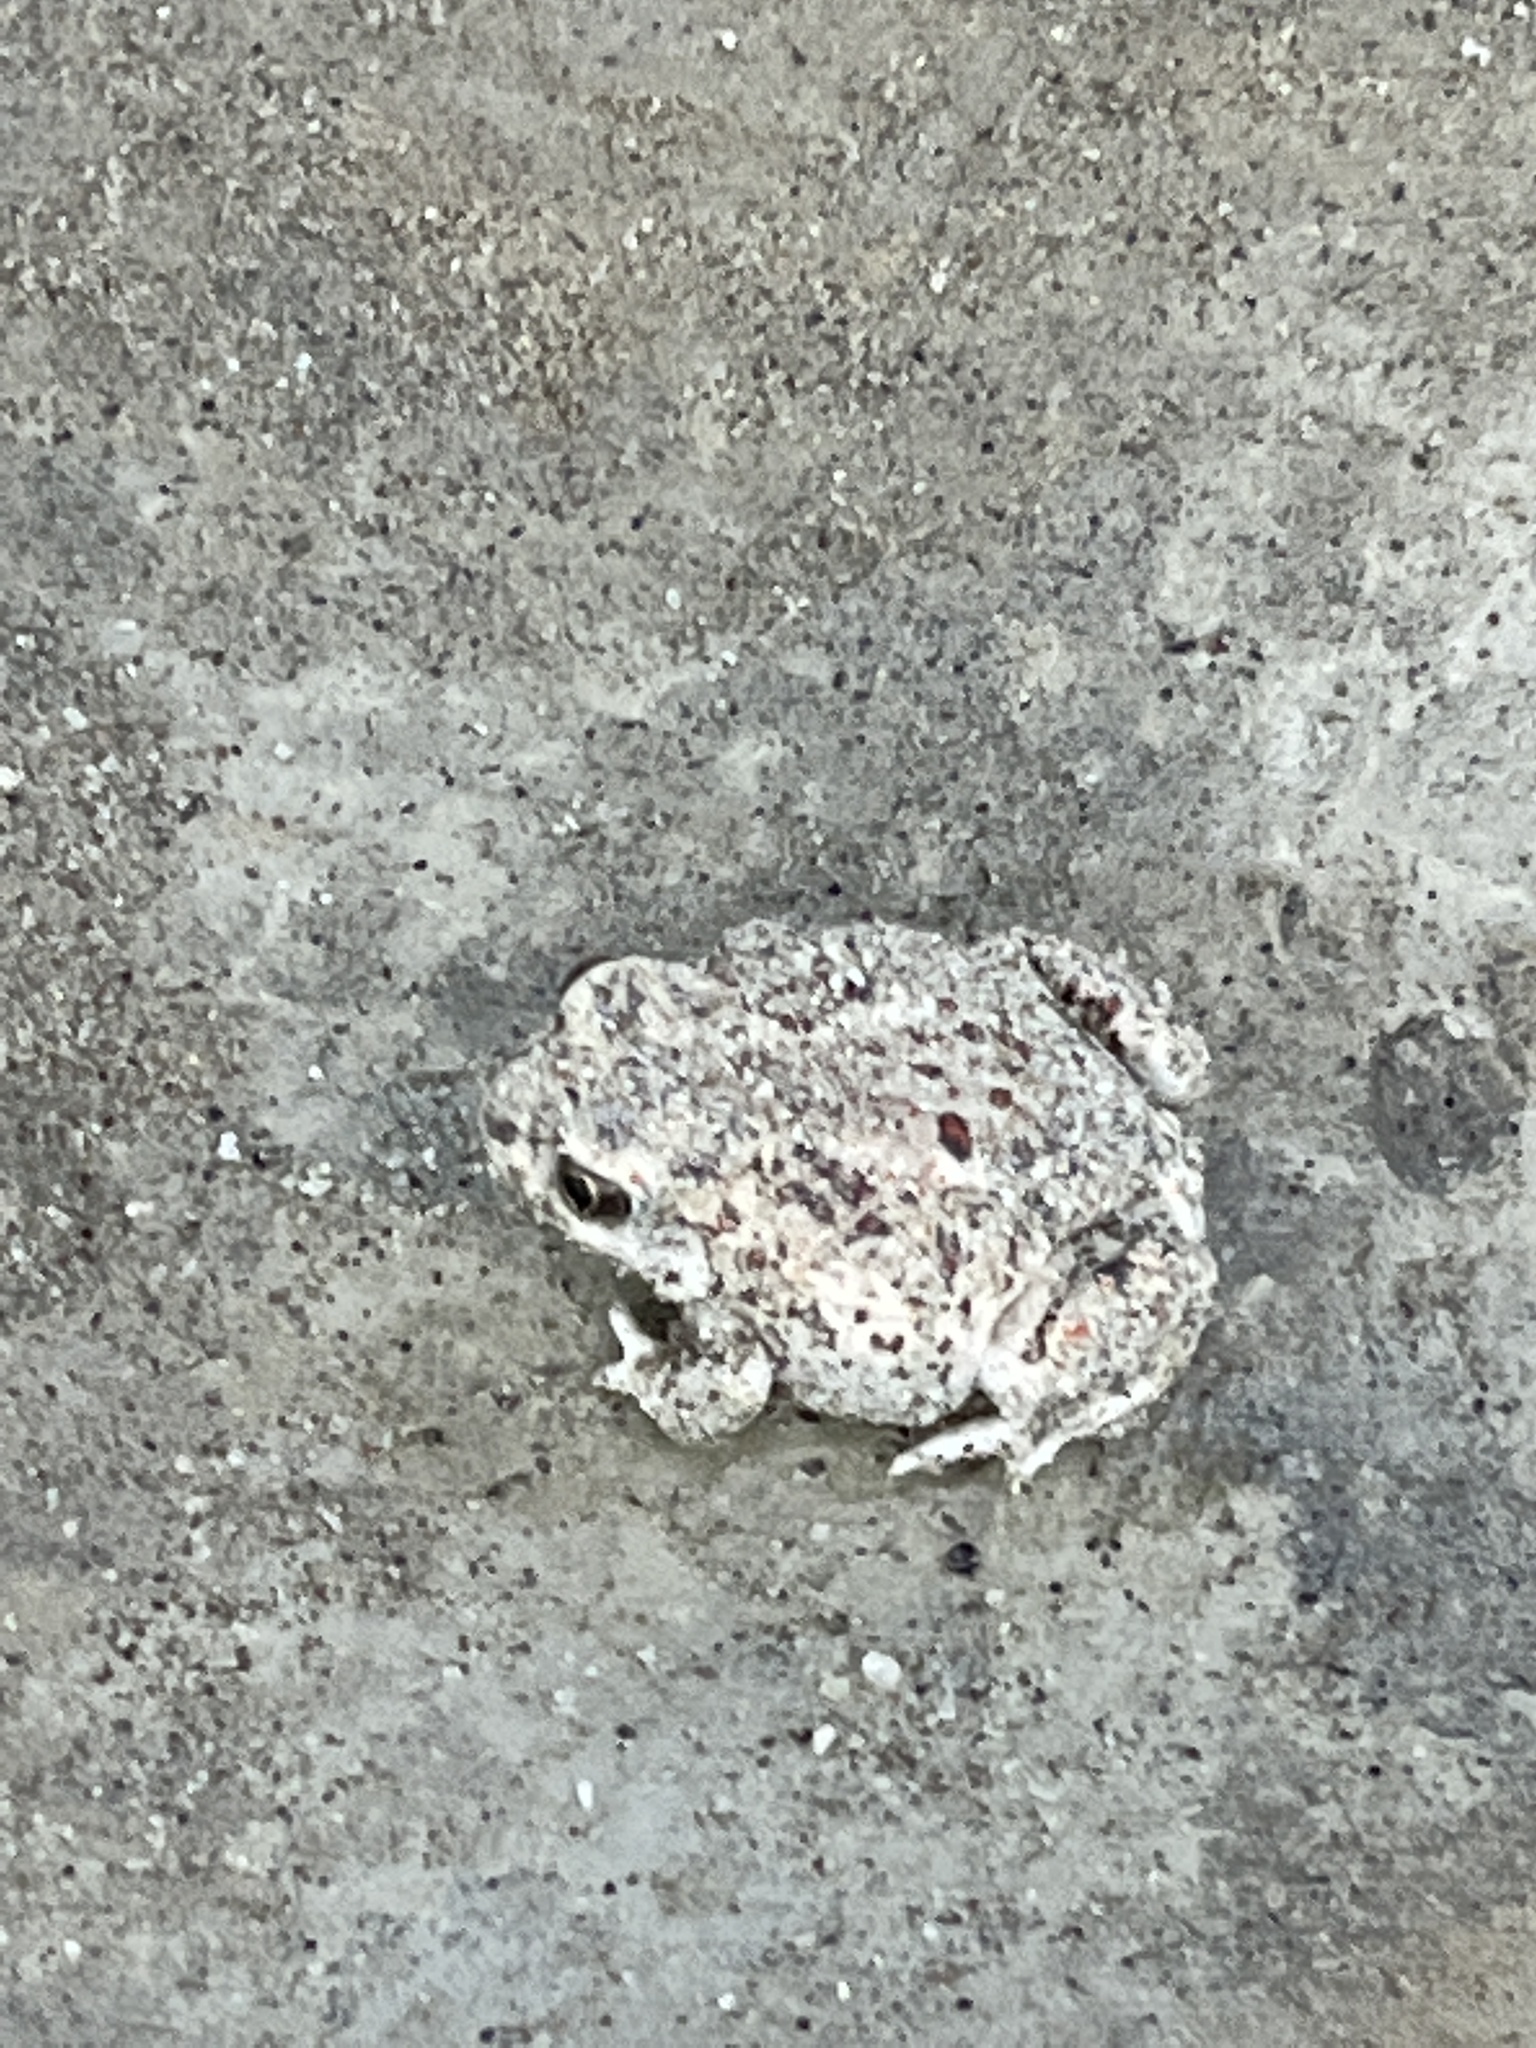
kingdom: Animalia
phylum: Chordata
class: Amphibia
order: Anura
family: Scaphiopodidae
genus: Spea
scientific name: Spea intermontana
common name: Great basin spadefoot
